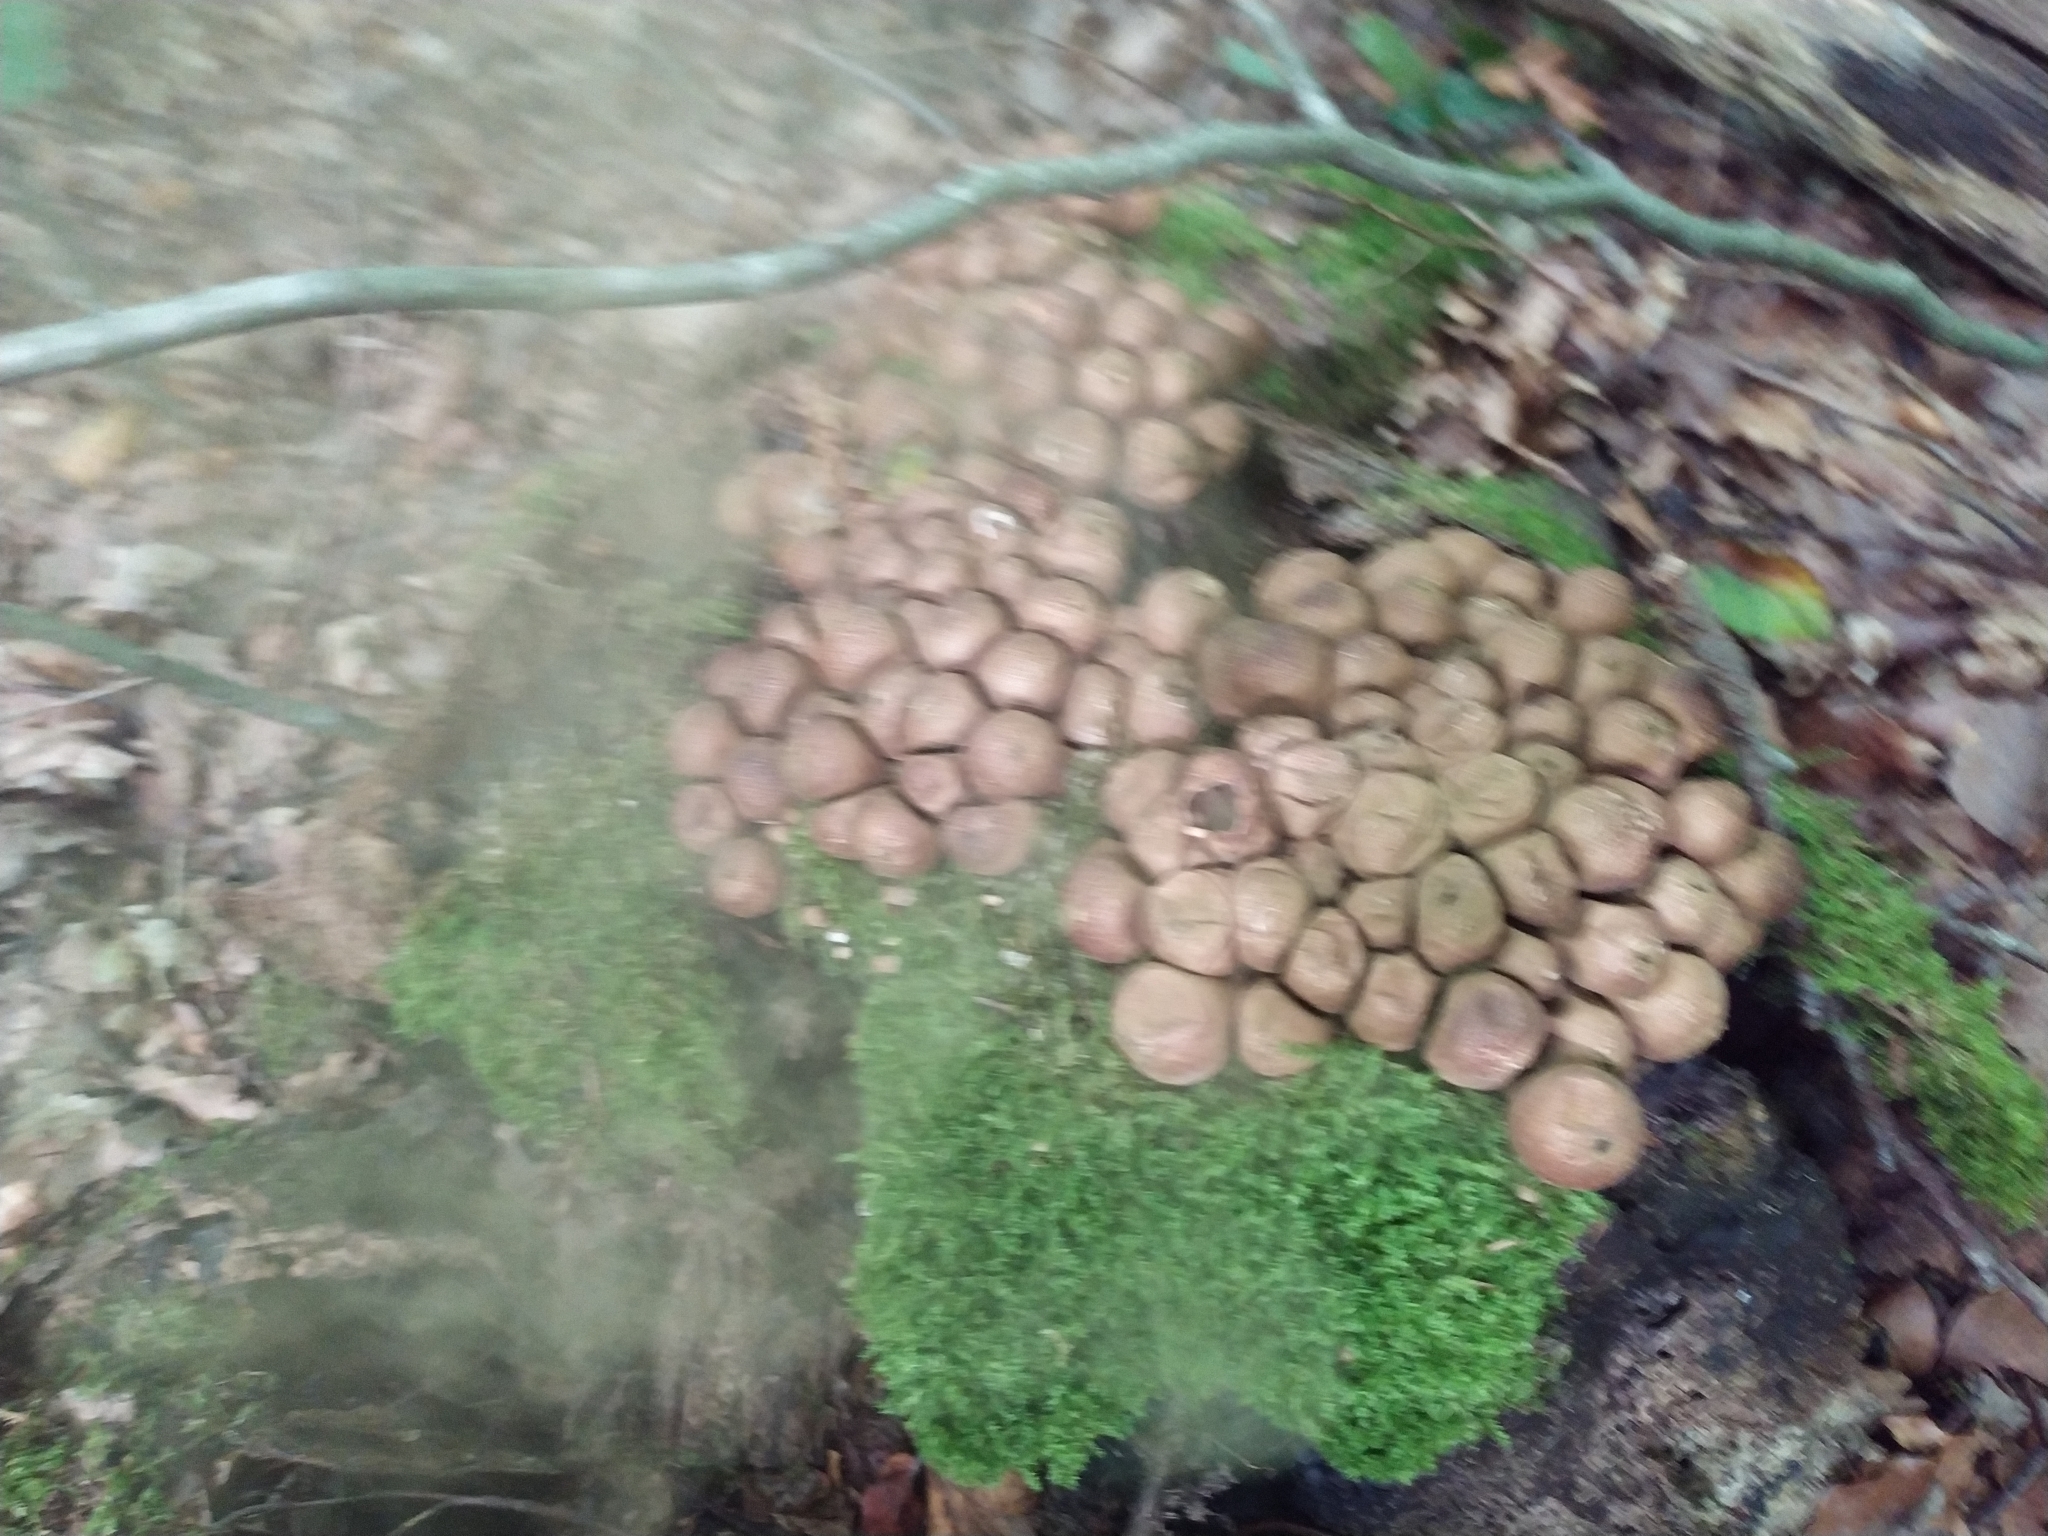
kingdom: Fungi
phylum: Basidiomycota
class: Agaricomycetes
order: Agaricales
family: Lycoperdaceae
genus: Apioperdon
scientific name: Apioperdon pyriforme
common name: Pear-shaped puffball
